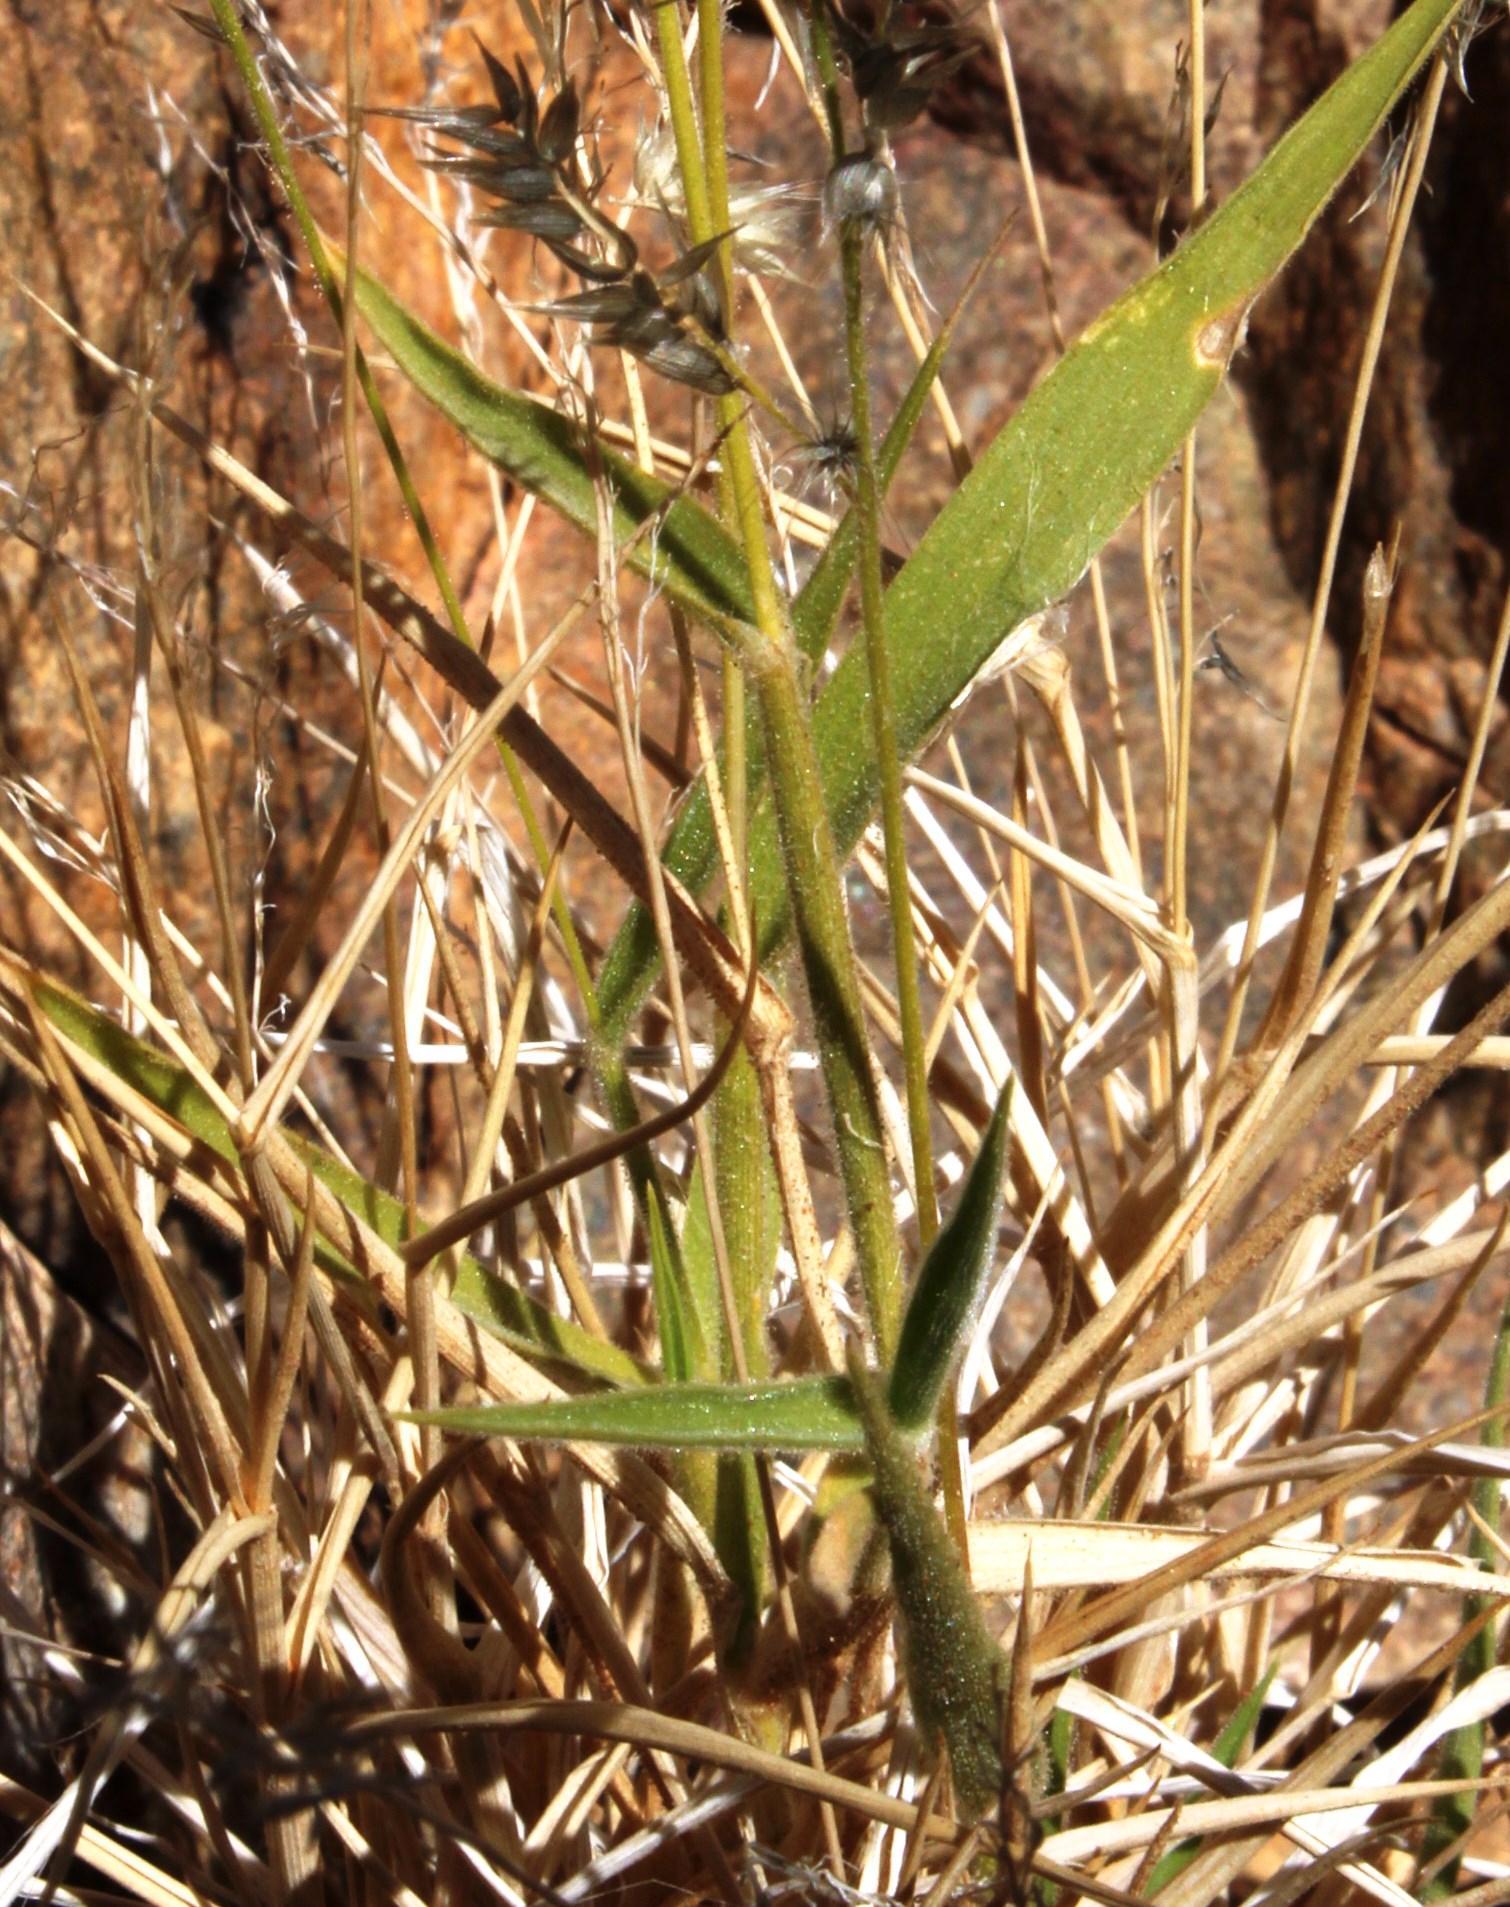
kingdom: Plantae
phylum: Tracheophyta
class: Liliopsida
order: Poales
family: Poaceae
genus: Enneapogon
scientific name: Enneapogon scaber
